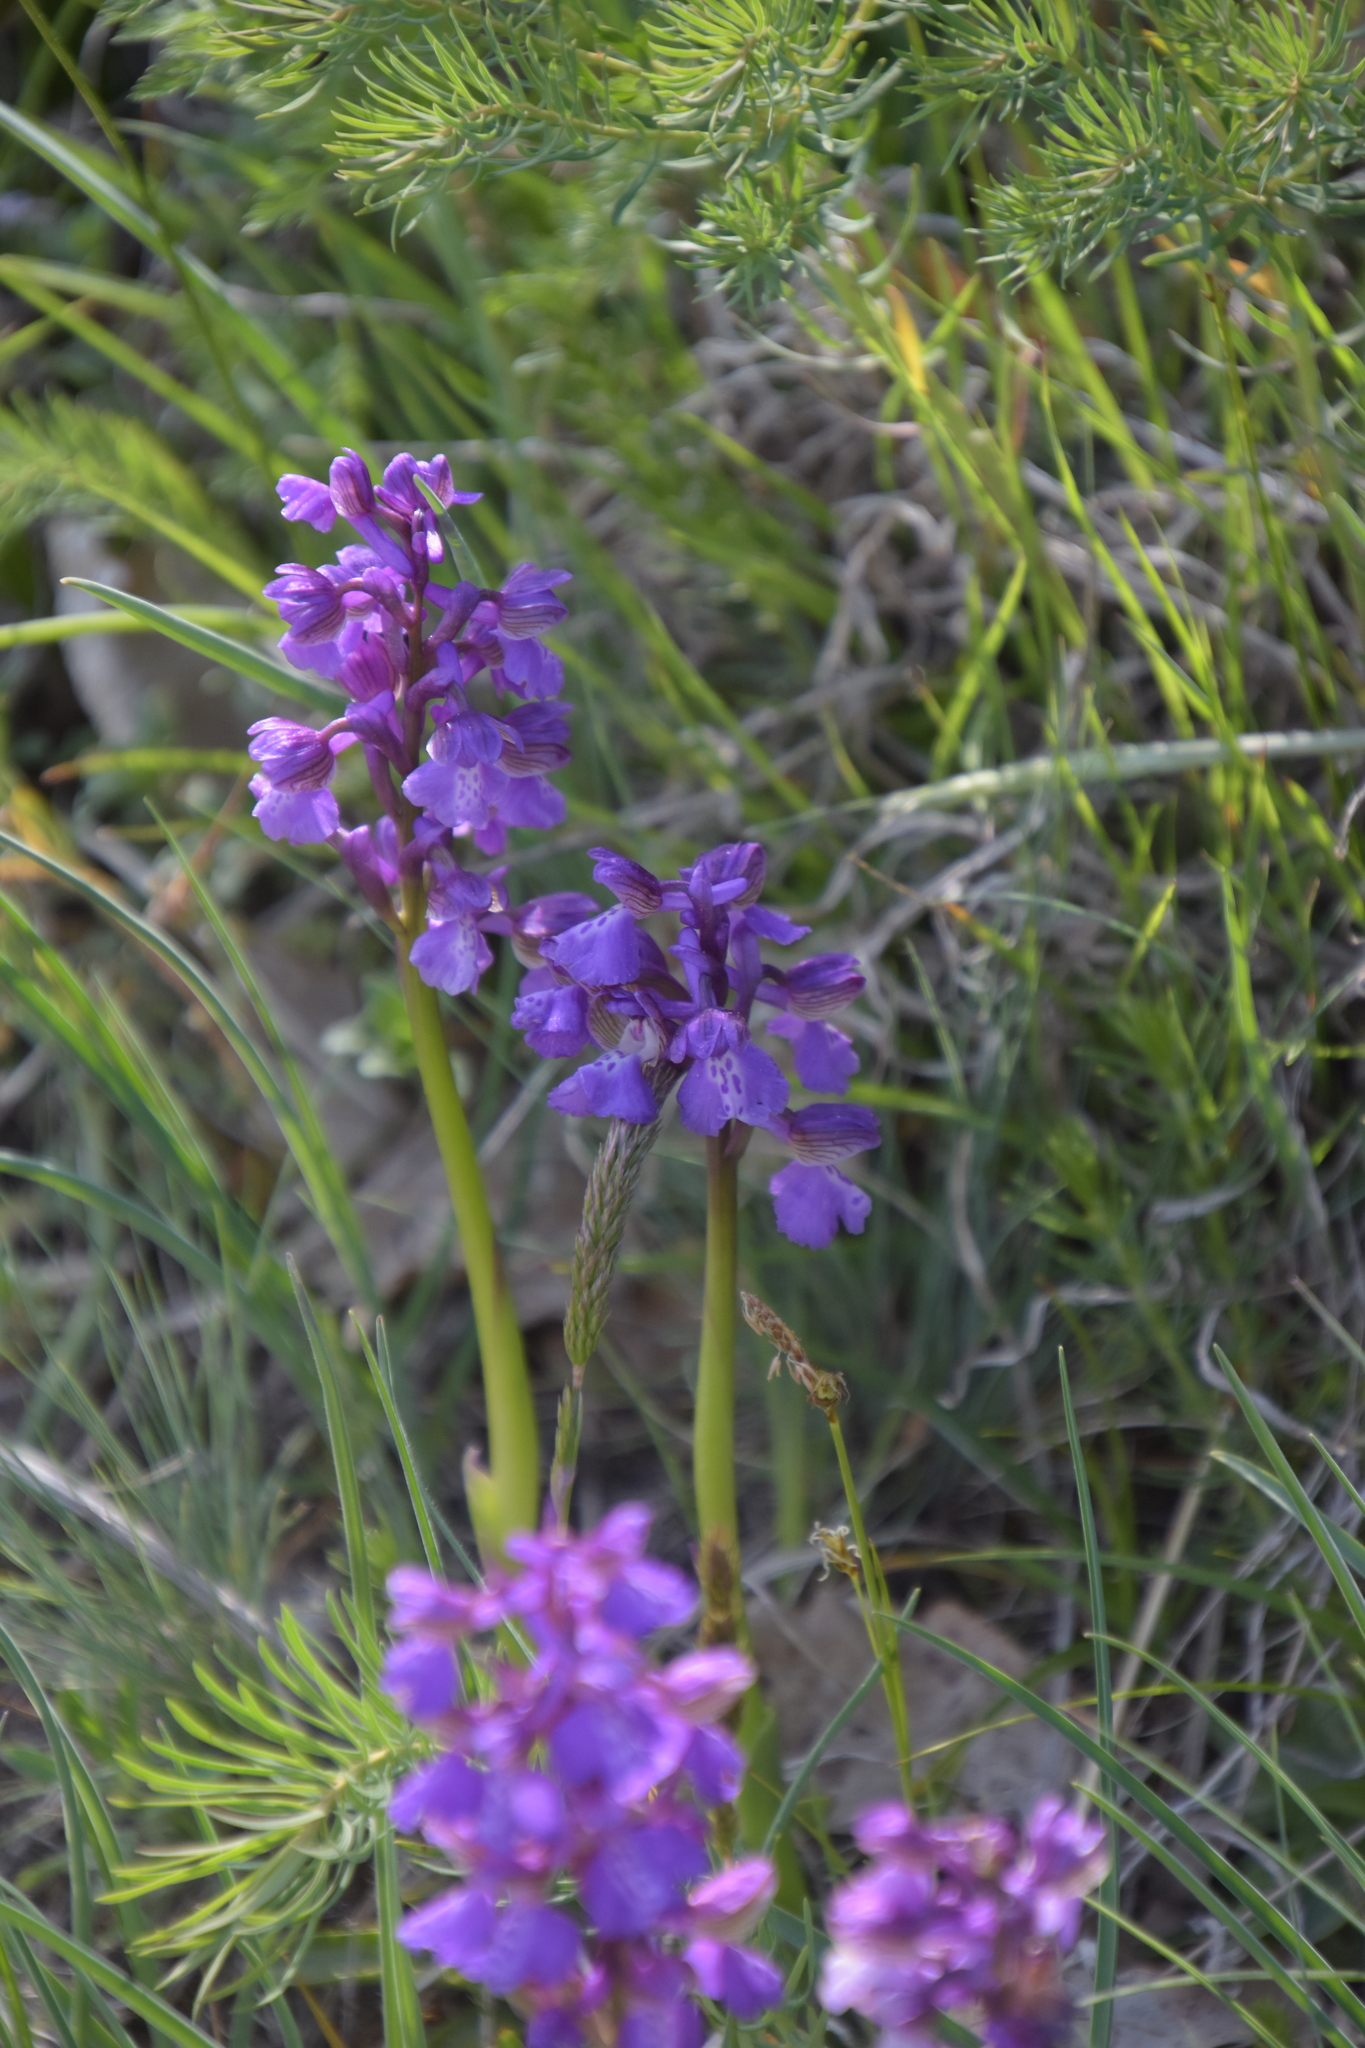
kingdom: Plantae
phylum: Tracheophyta
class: Liliopsida
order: Asparagales
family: Orchidaceae
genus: Anacamptis
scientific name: Anacamptis morio
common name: Green-winged orchid
